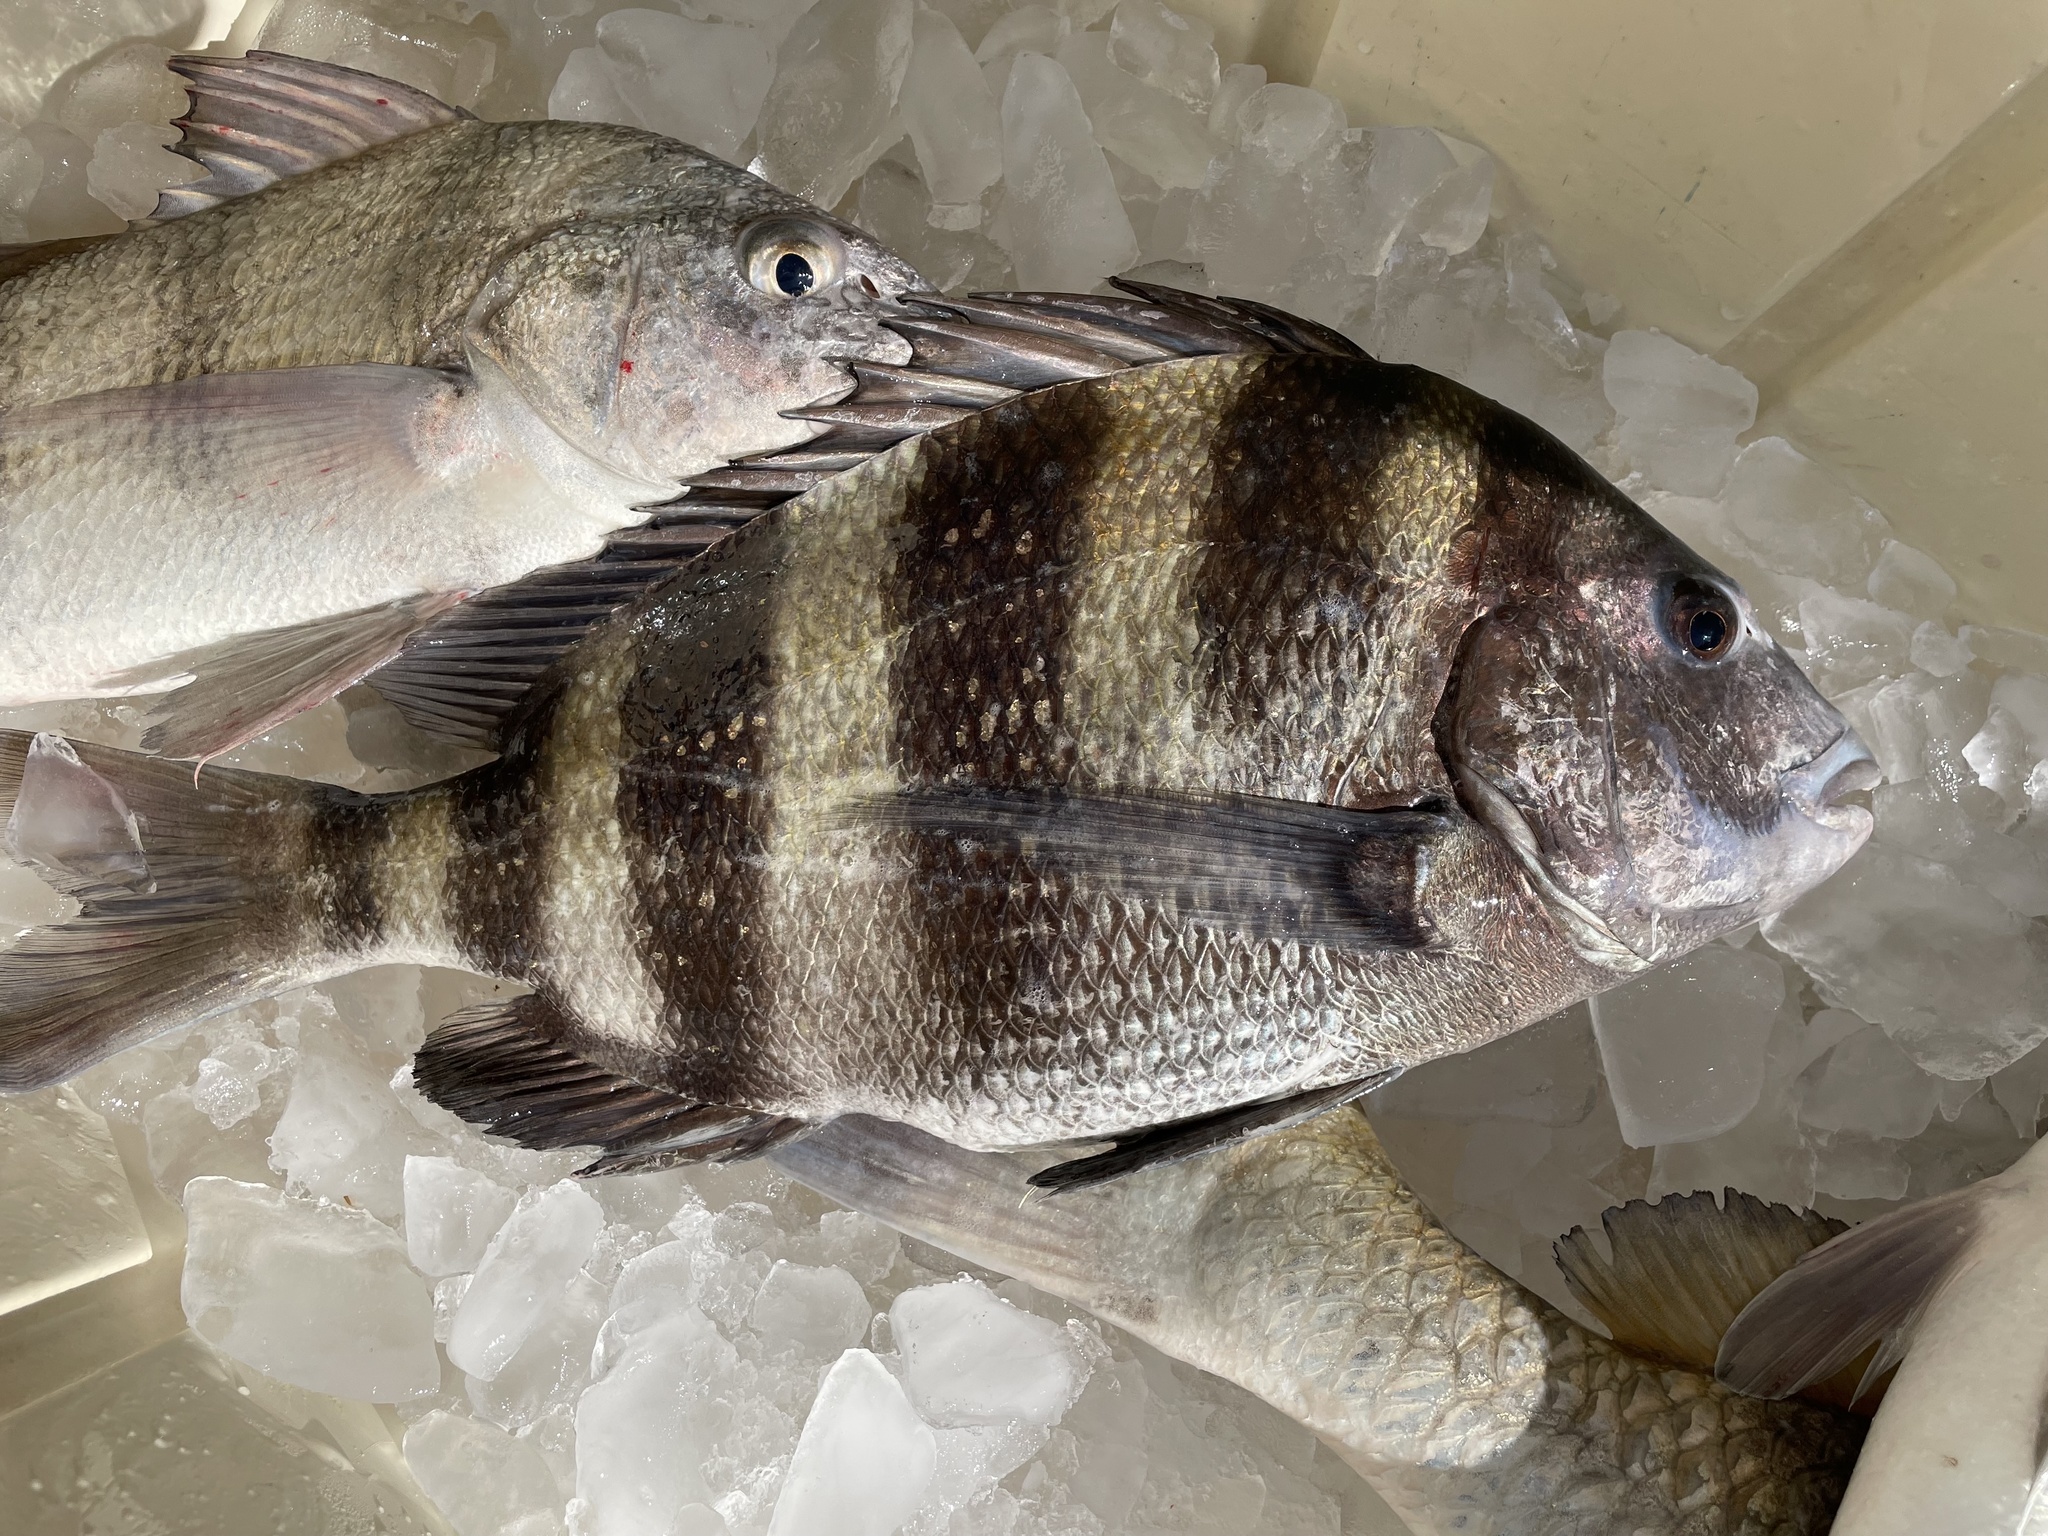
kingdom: Animalia
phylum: Chordata
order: Perciformes
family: Sparidae
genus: Archosargus
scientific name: Archosargus probatocephalus
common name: Sheepshead
